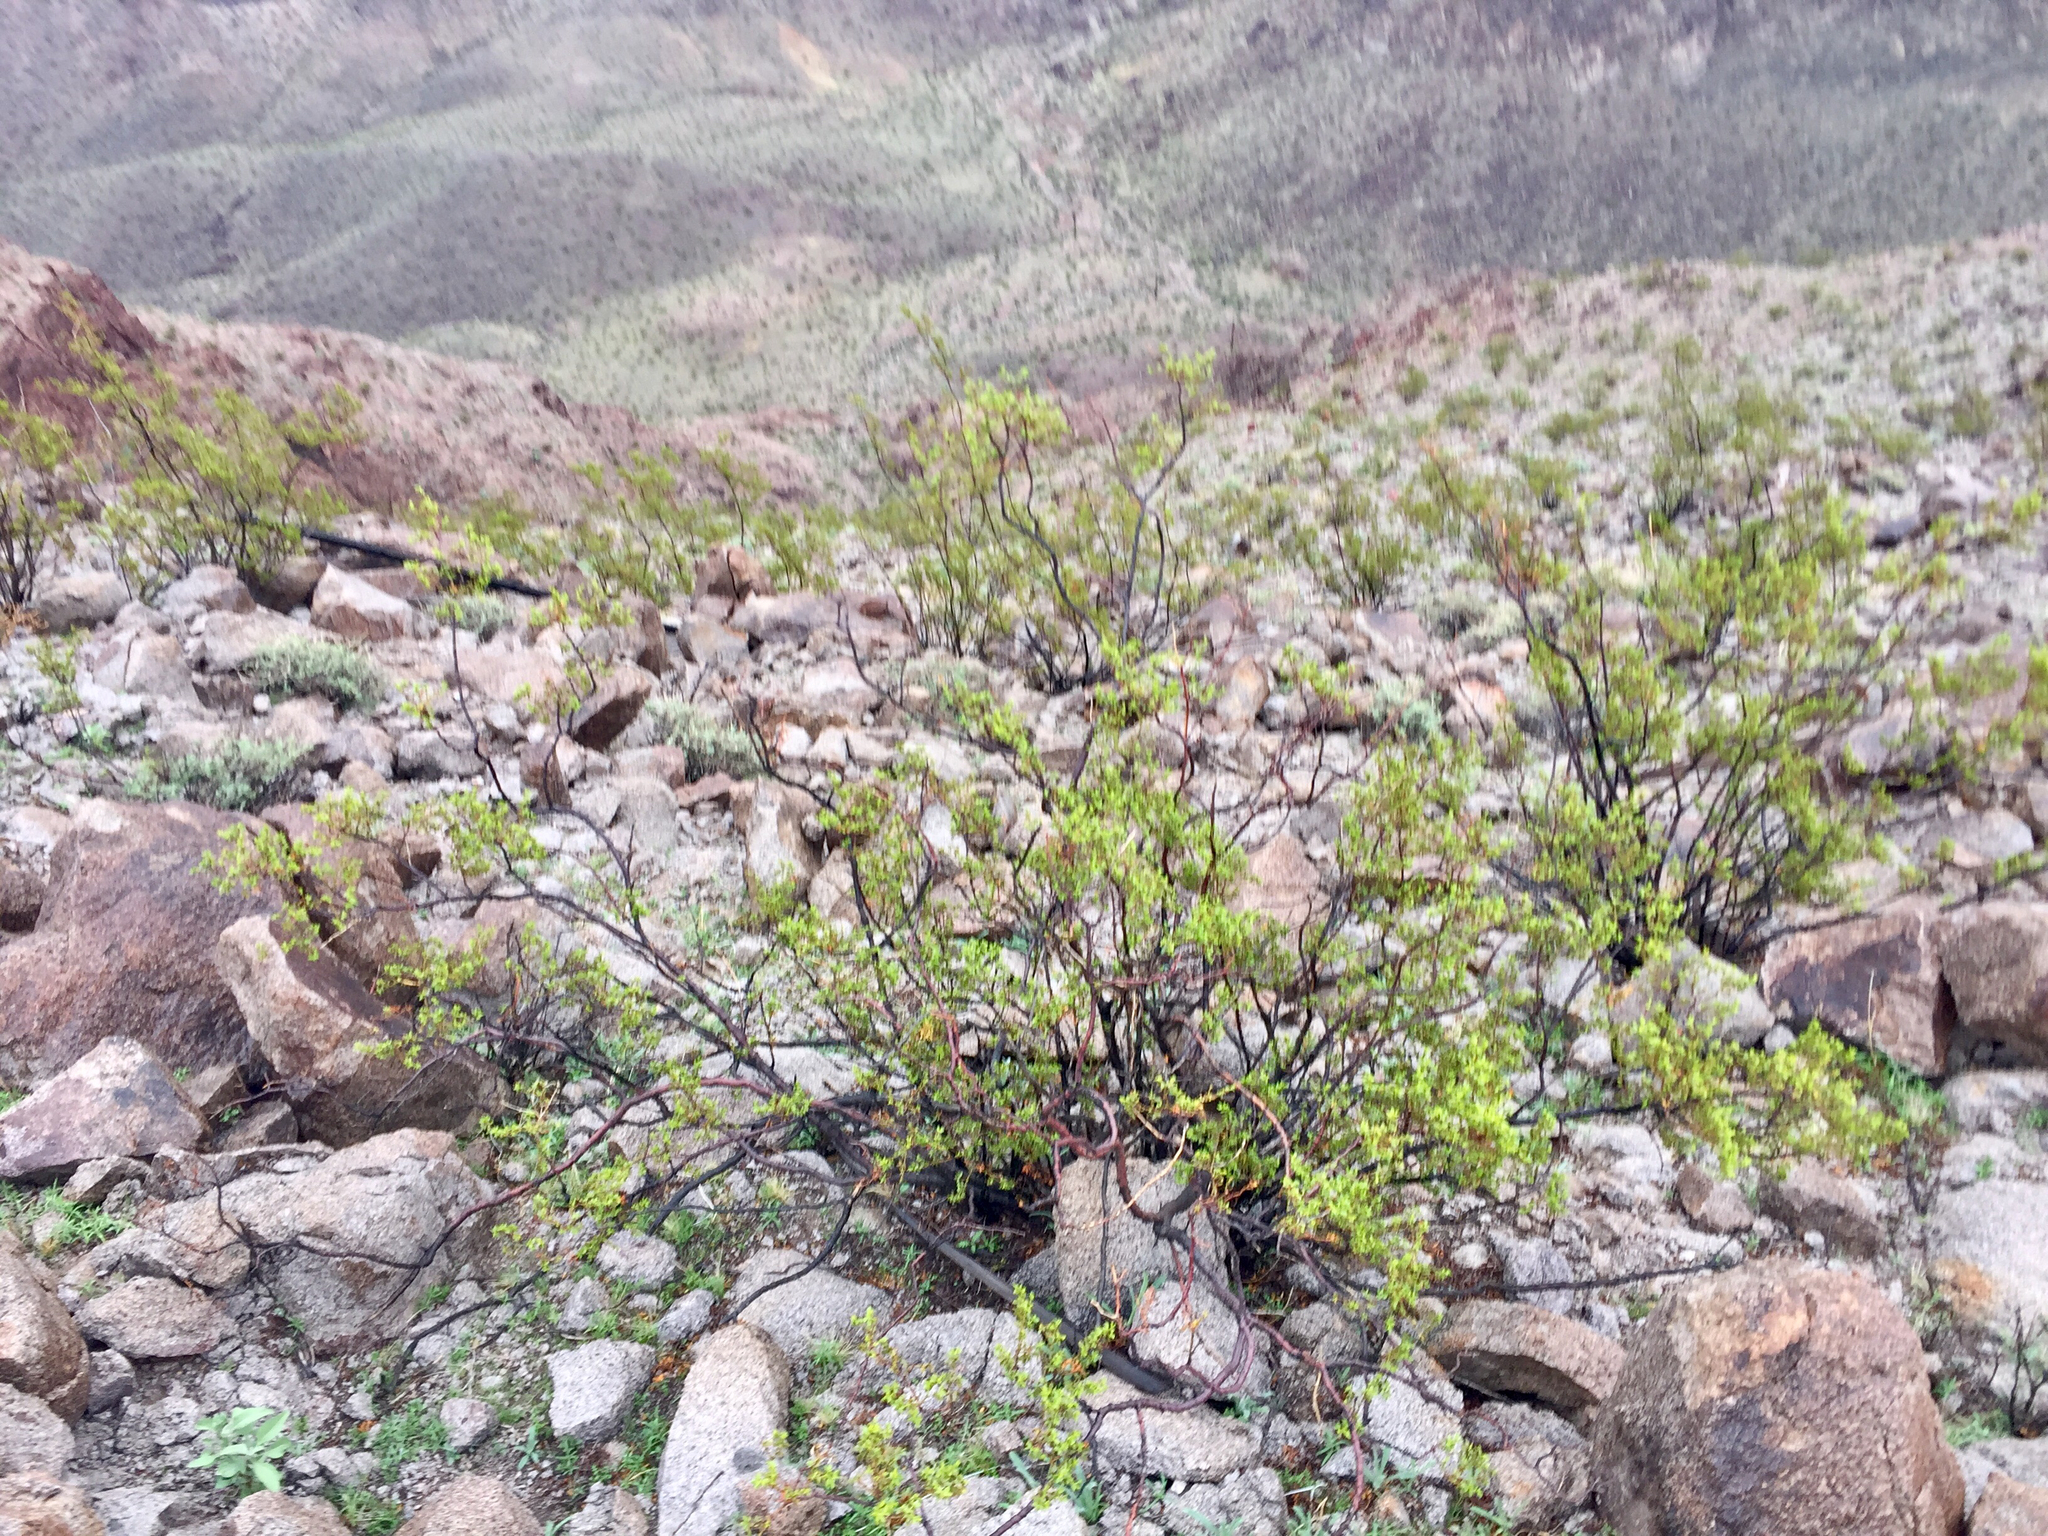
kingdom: Plantae
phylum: Tracheophyta
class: Magnoliopsida
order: Zygophyllales
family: Zygophyllaceae
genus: Larrea
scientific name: Larrea tridentata
